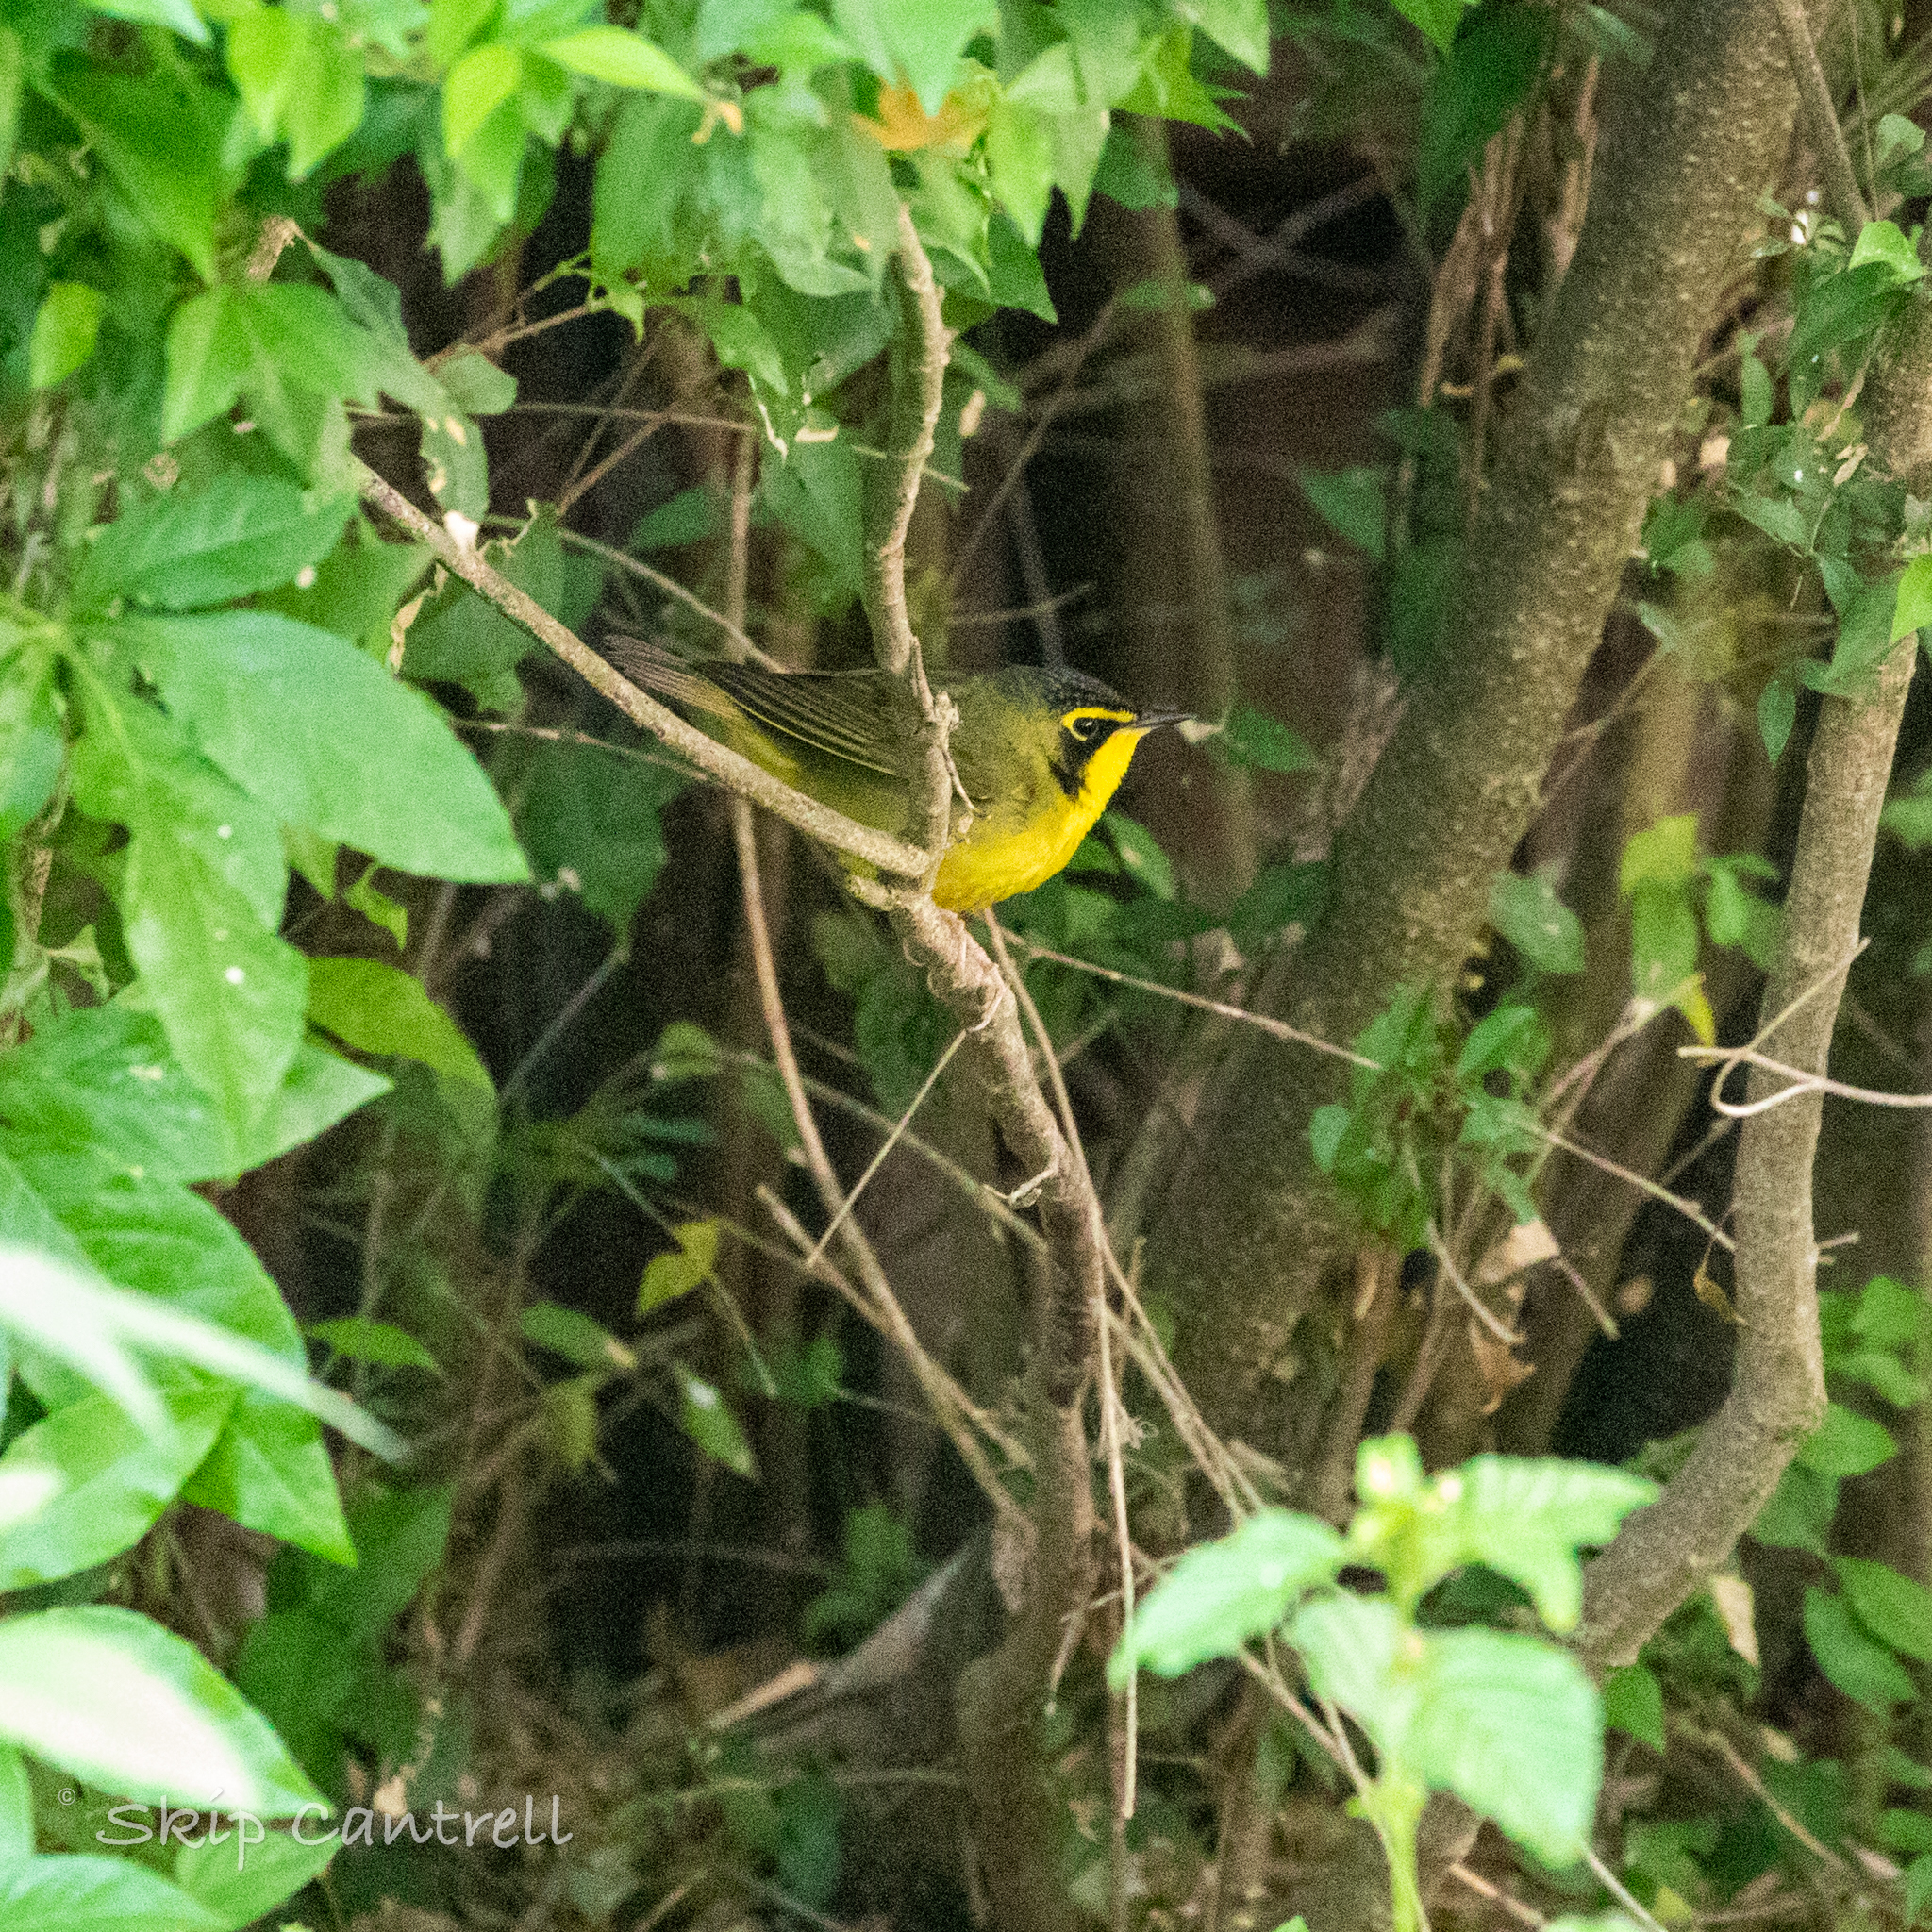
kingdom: Animalia
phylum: Chordata
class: Aves
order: Passeriformes
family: Parulidae
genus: Geothlypis
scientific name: Geothlypis formosa
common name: Kentucky warbler
